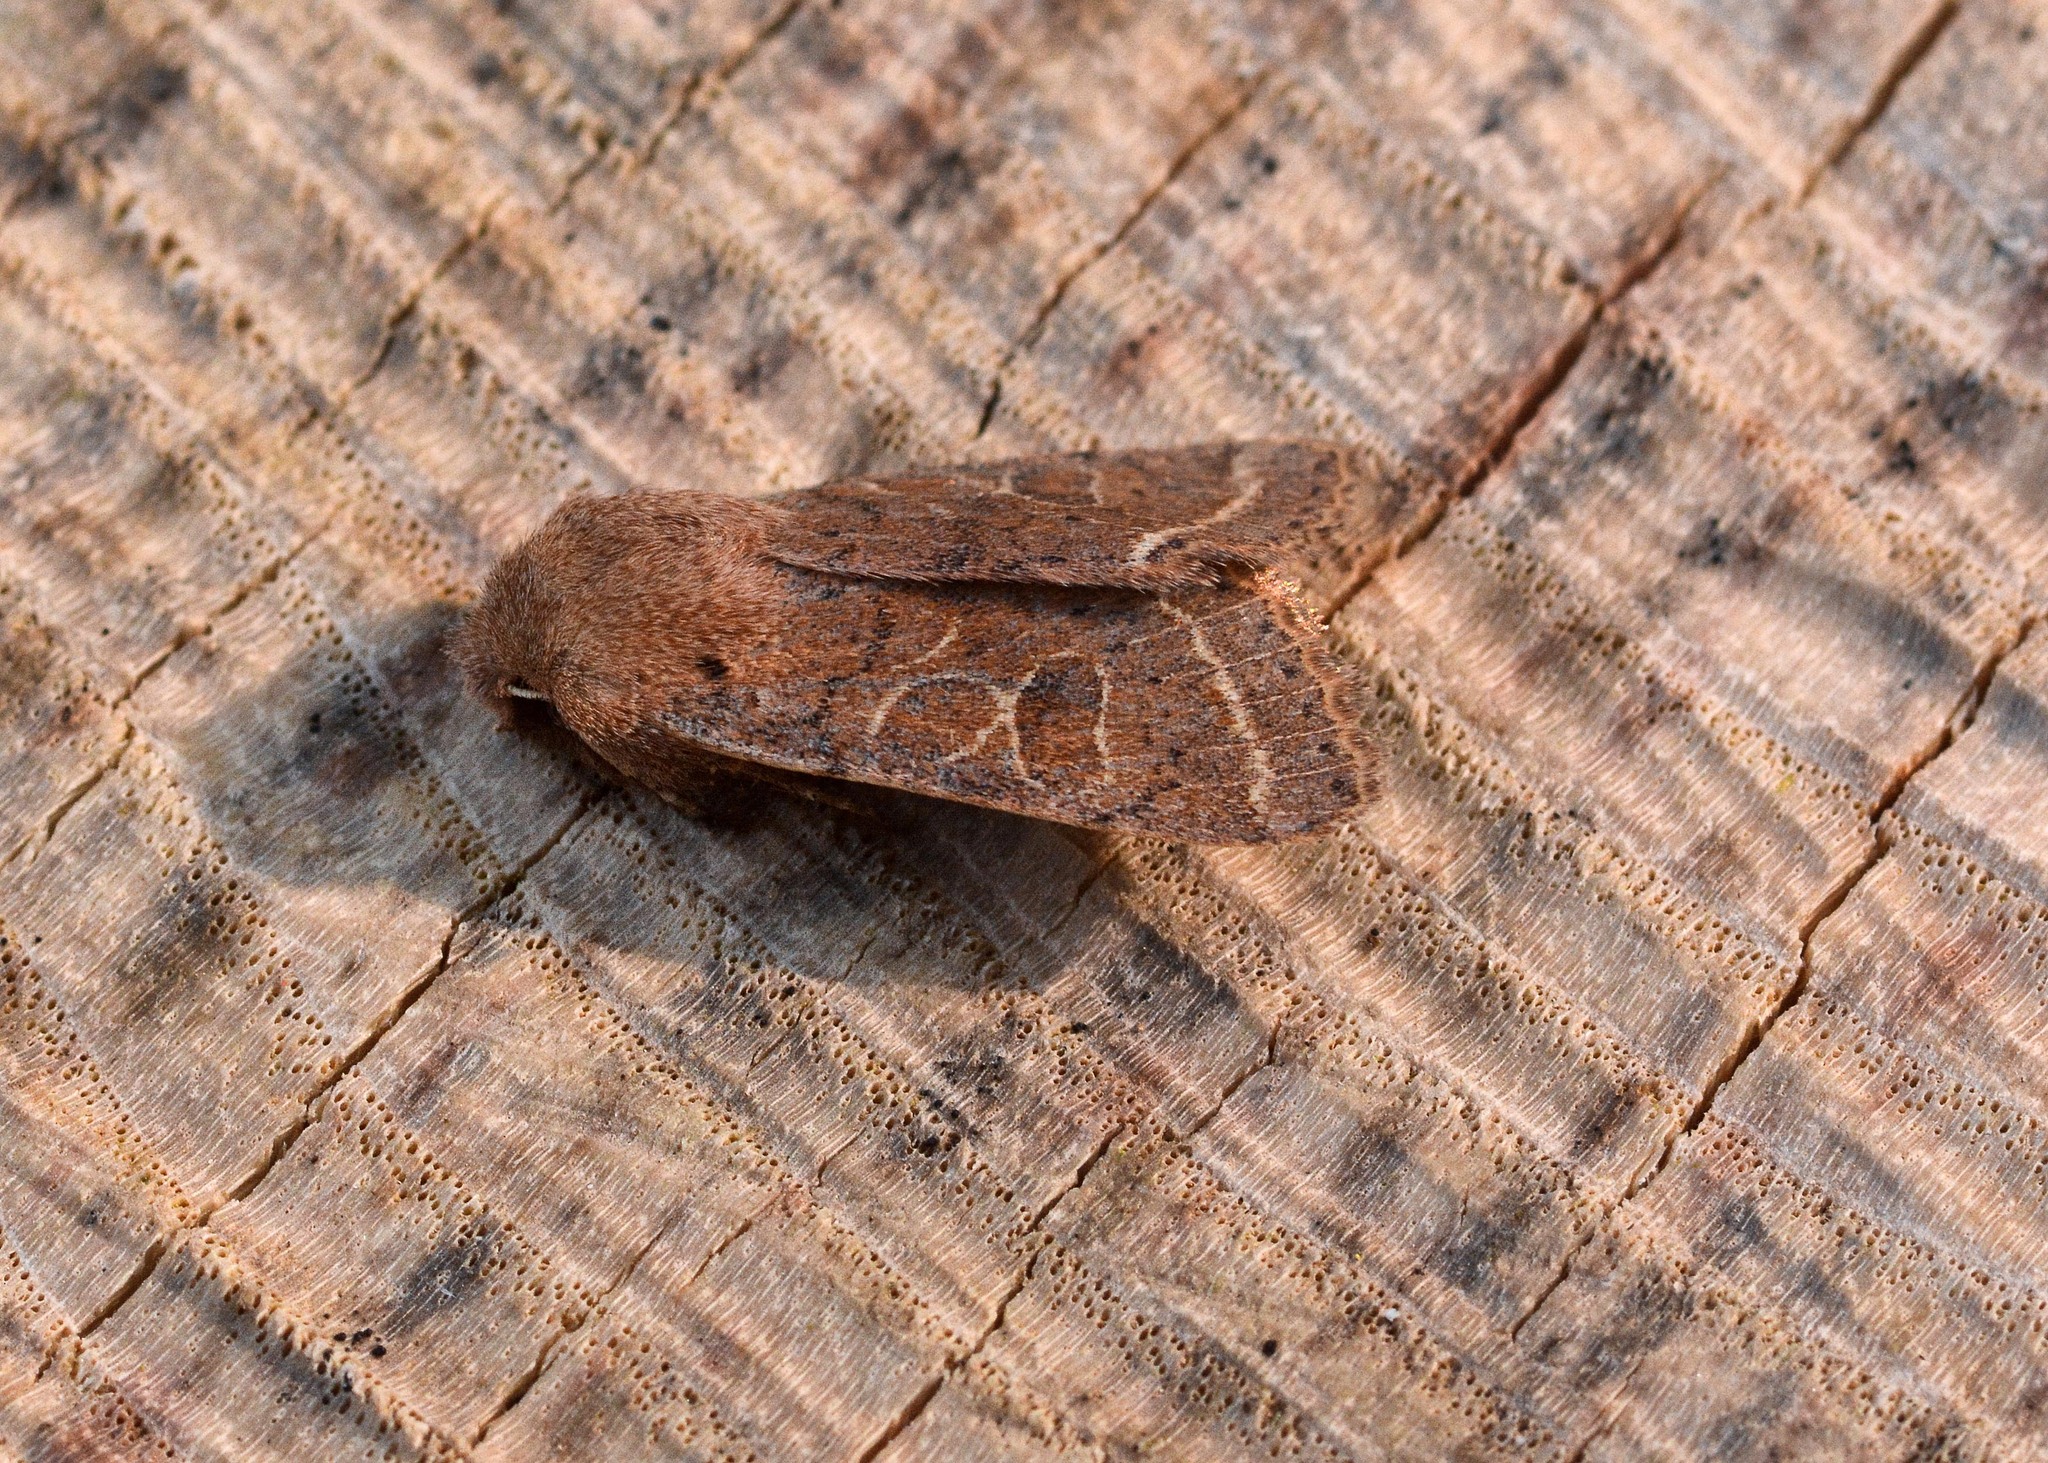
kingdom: Animalia
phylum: Arthropoda
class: Insecta
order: Lepidoptera
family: Noctuidae
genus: Orthosia
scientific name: Orthosia cerasi
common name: Common quaker
